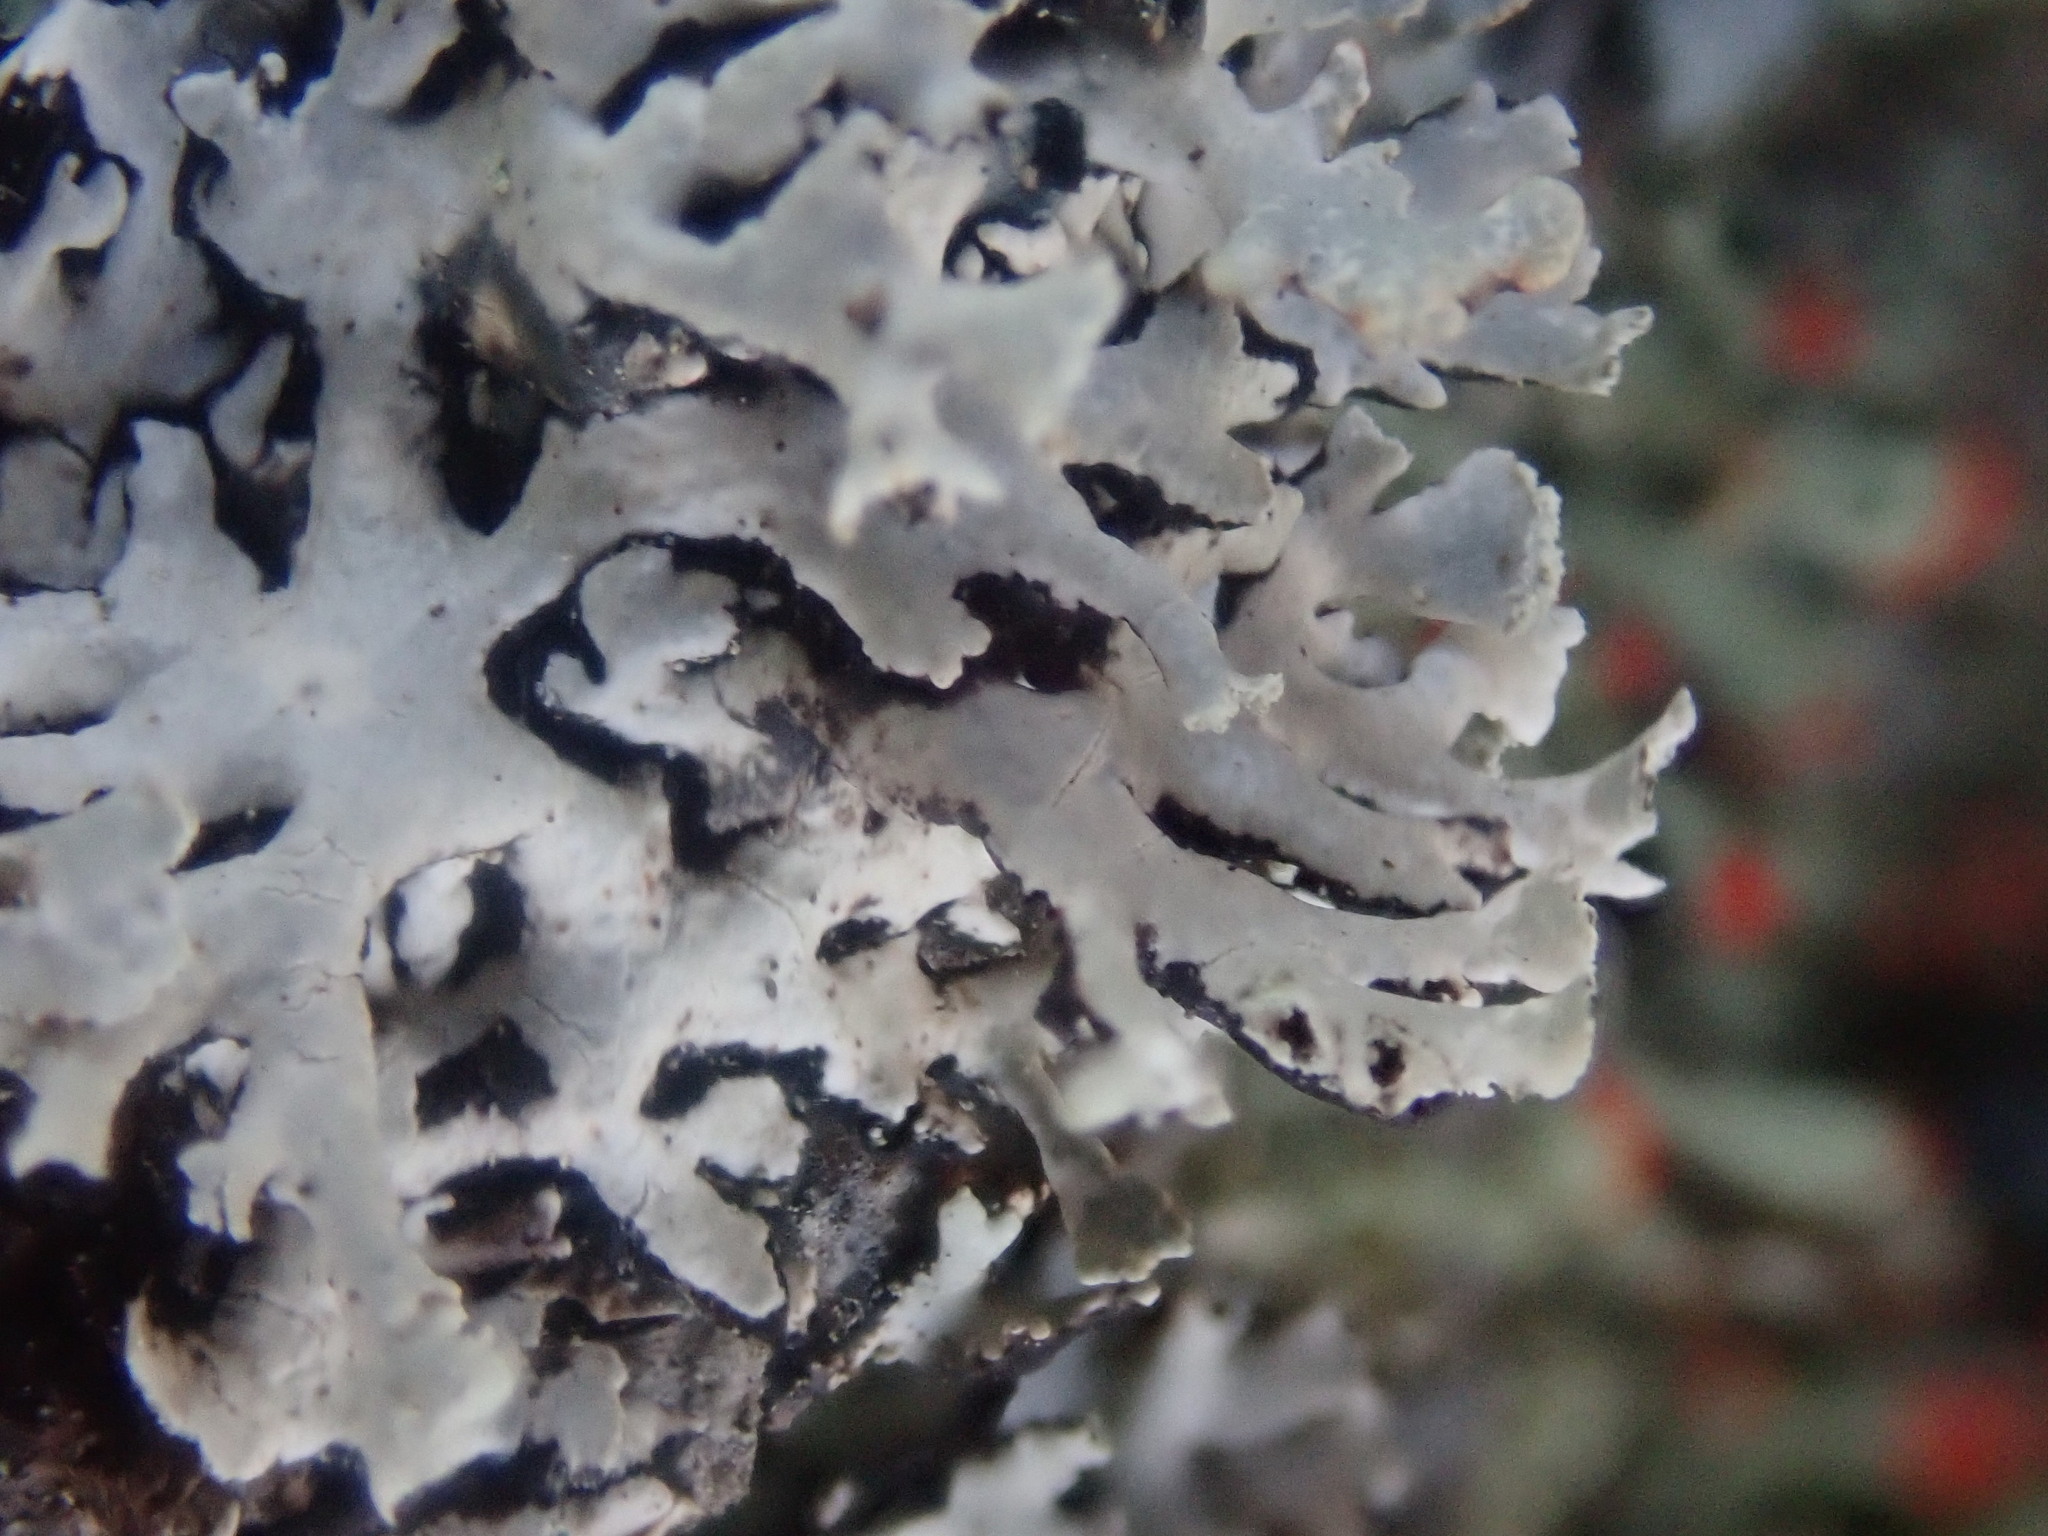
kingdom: Fungi
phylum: Ascomycota
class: Lecanoromycetes
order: Lecanorales
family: Parmeliaceae
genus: Hypogymnia
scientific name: Hypogymnia physodes
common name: Dark crottle
